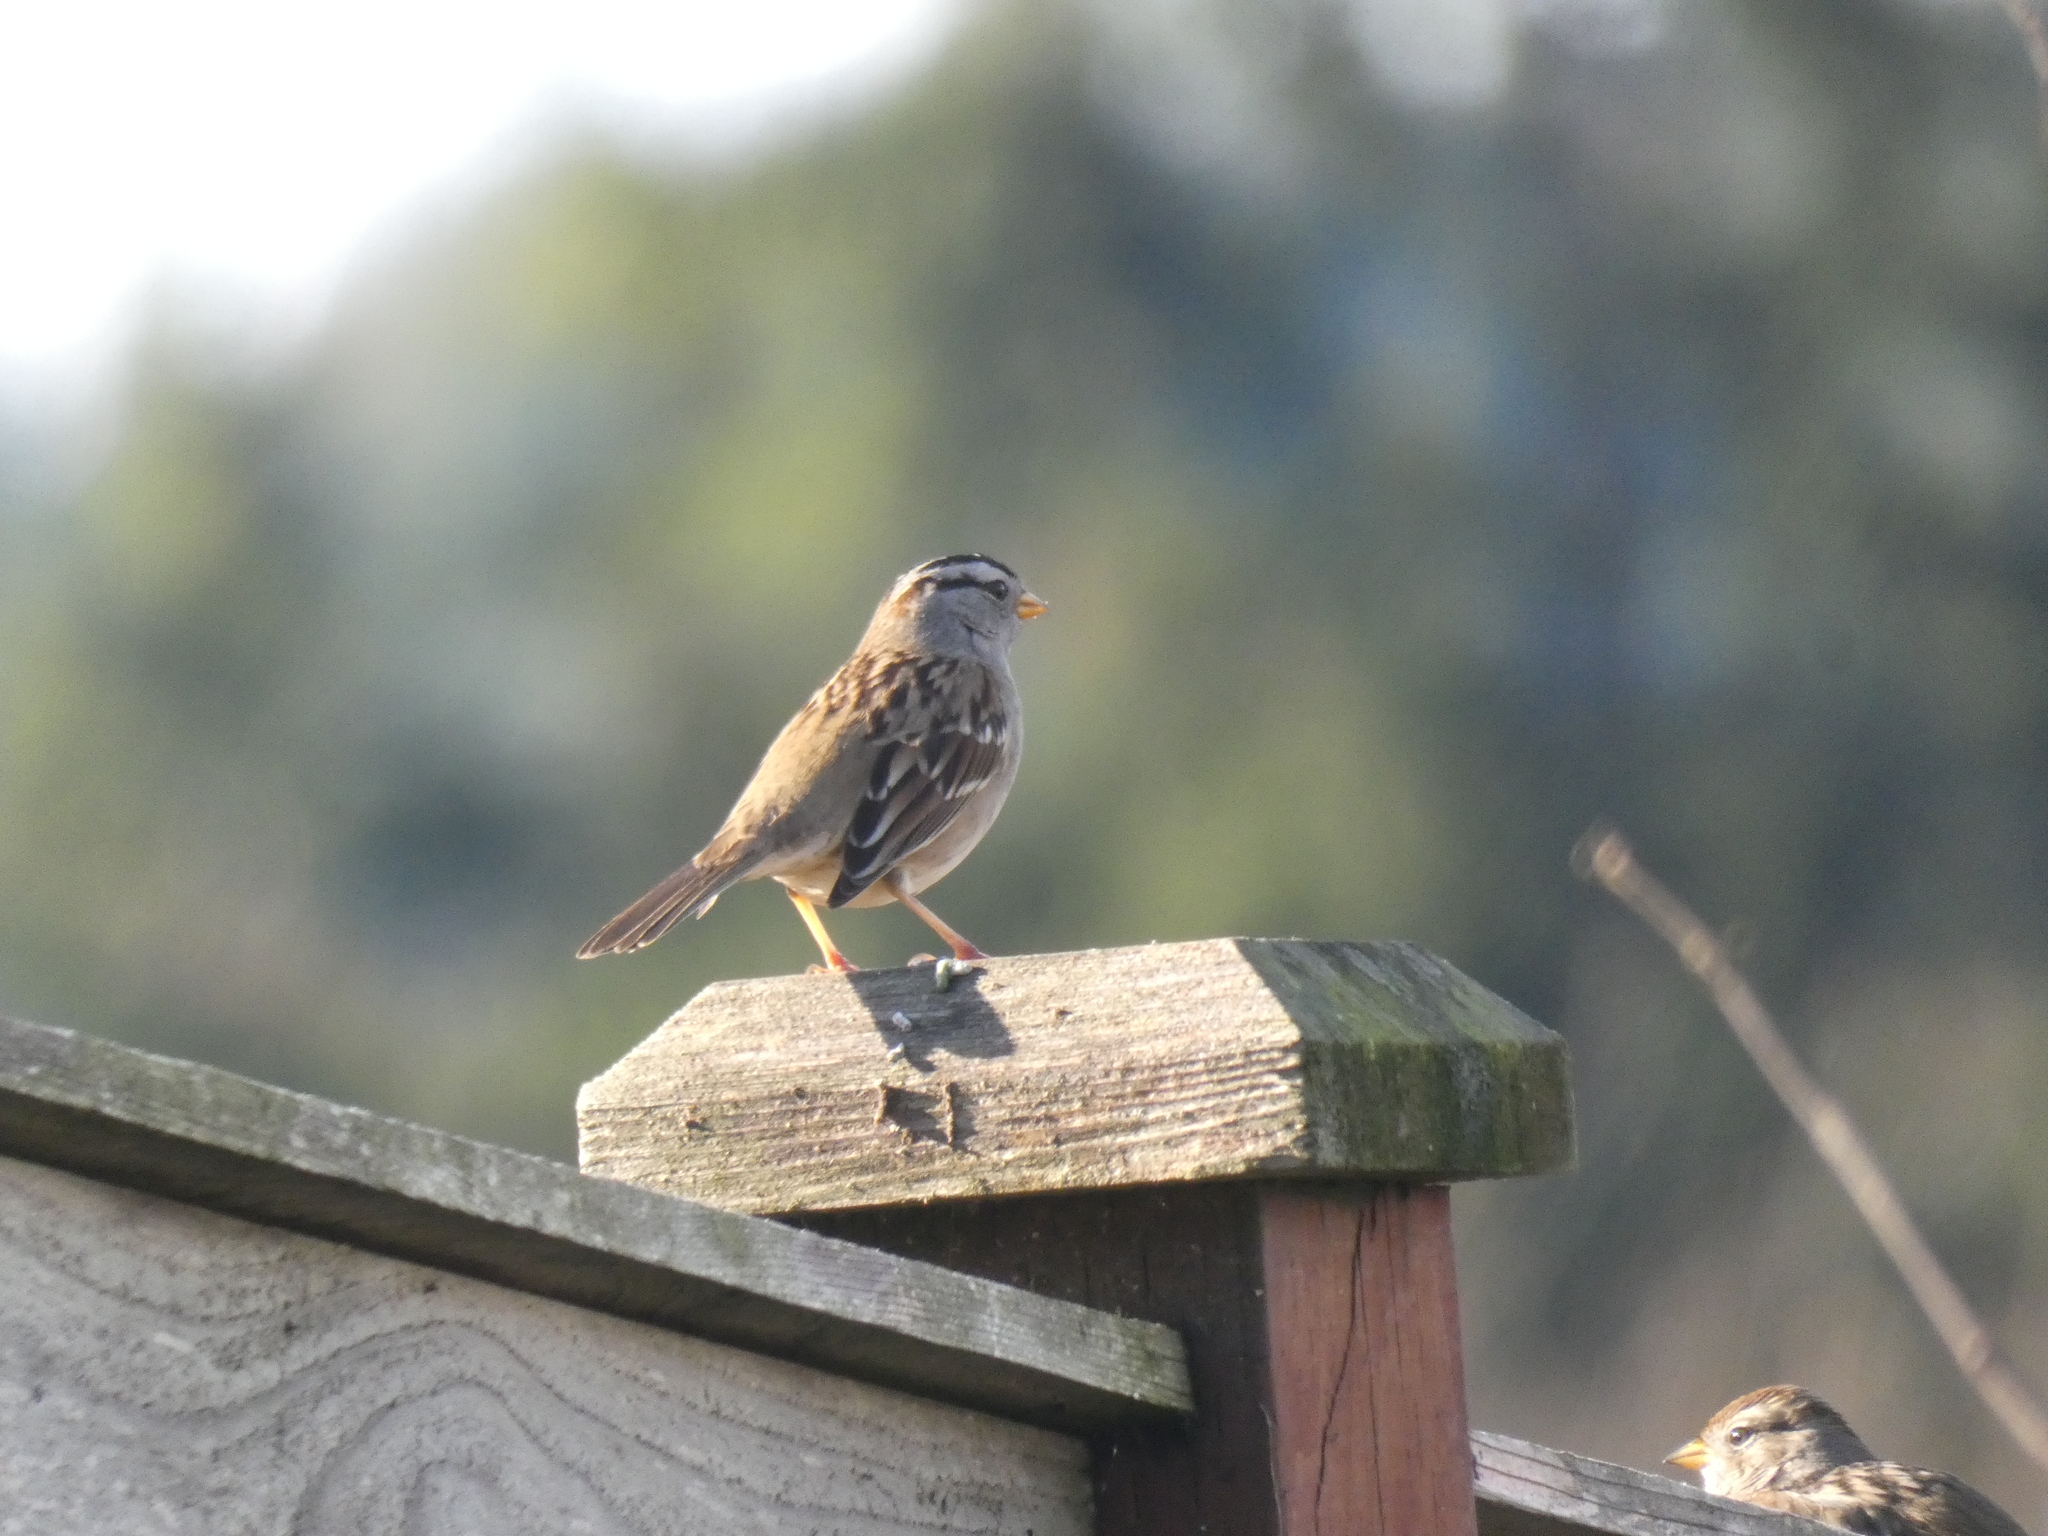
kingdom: Animalia
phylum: Chordata
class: Aves
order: Passeriformes
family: Passerellidae
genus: Zonotrichia
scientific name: Zonotrichia leucophrys
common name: White-crowned sparrow
